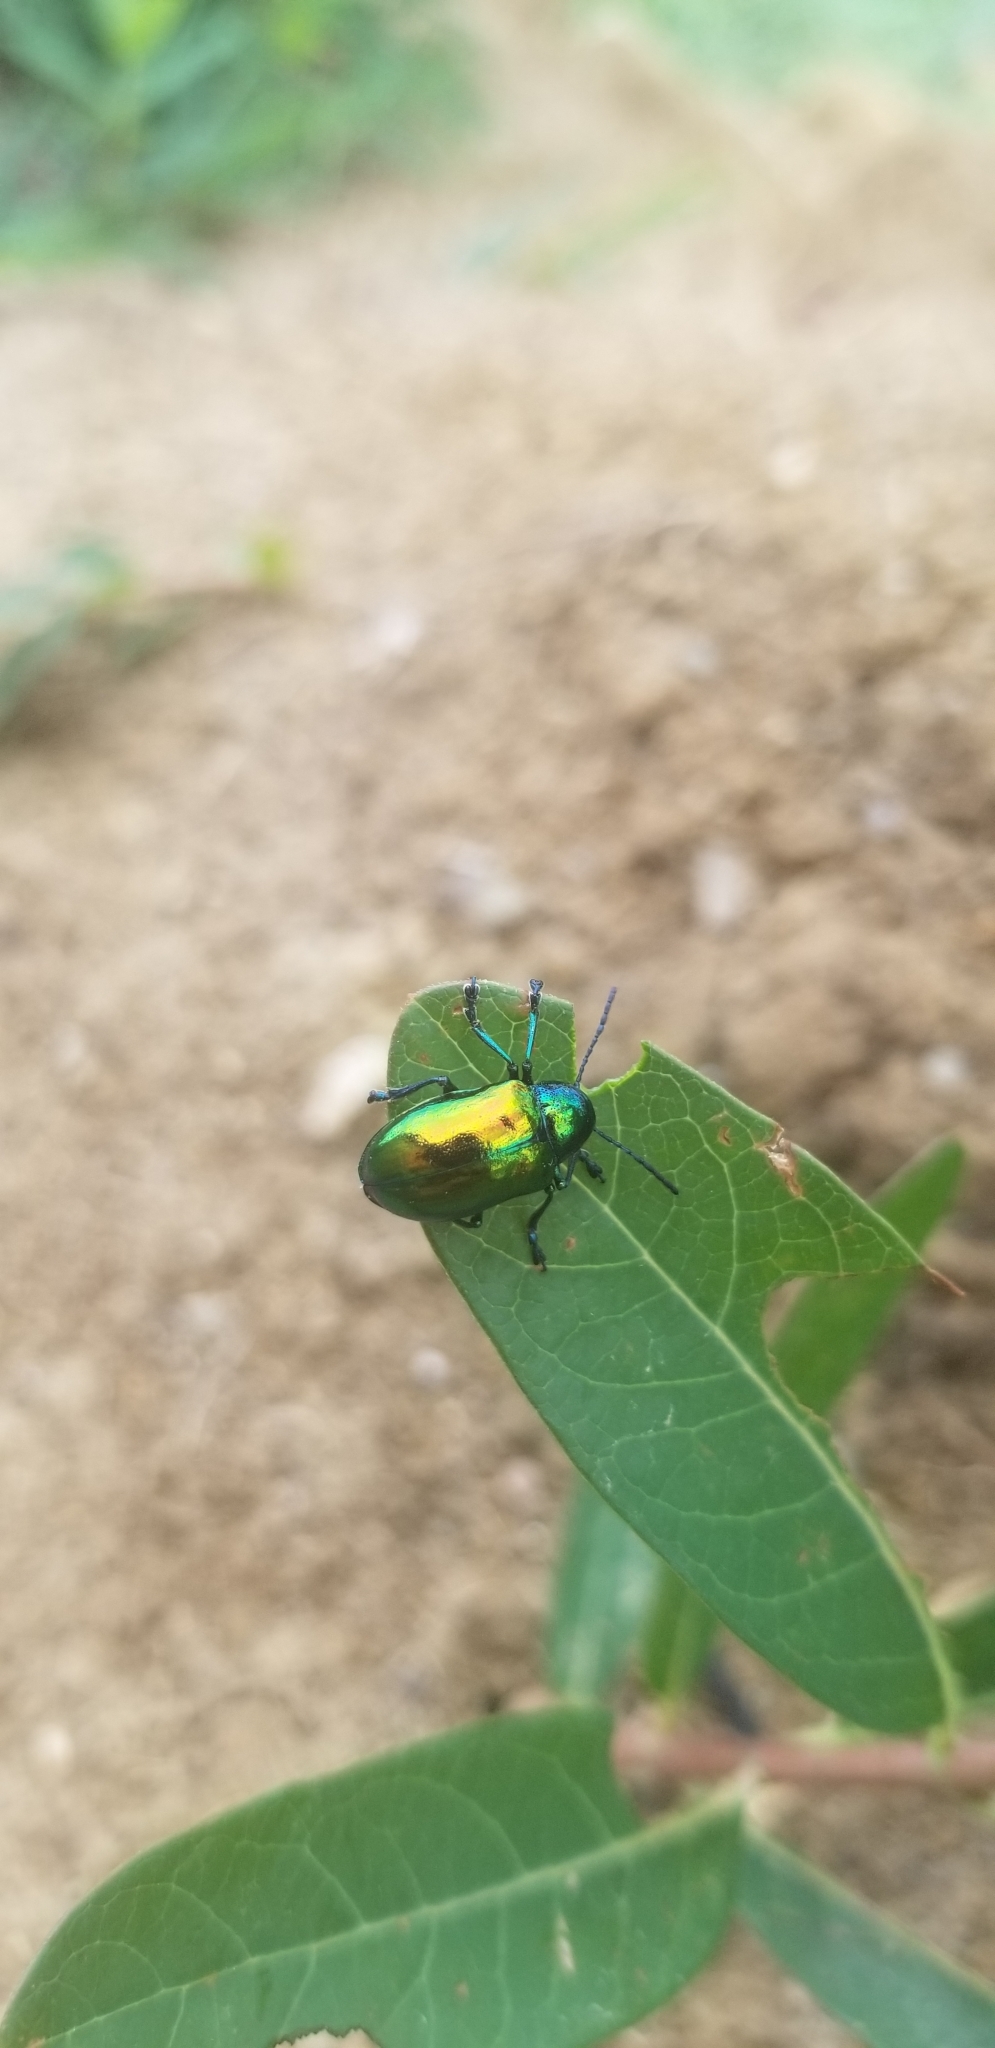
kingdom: Animalia
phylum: Arthropoda
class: Insecta
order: Coleoptera
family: Chrysomelidae
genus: Chrysochus
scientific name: Chrysochus auratus
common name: Dogbane leaf beetle
